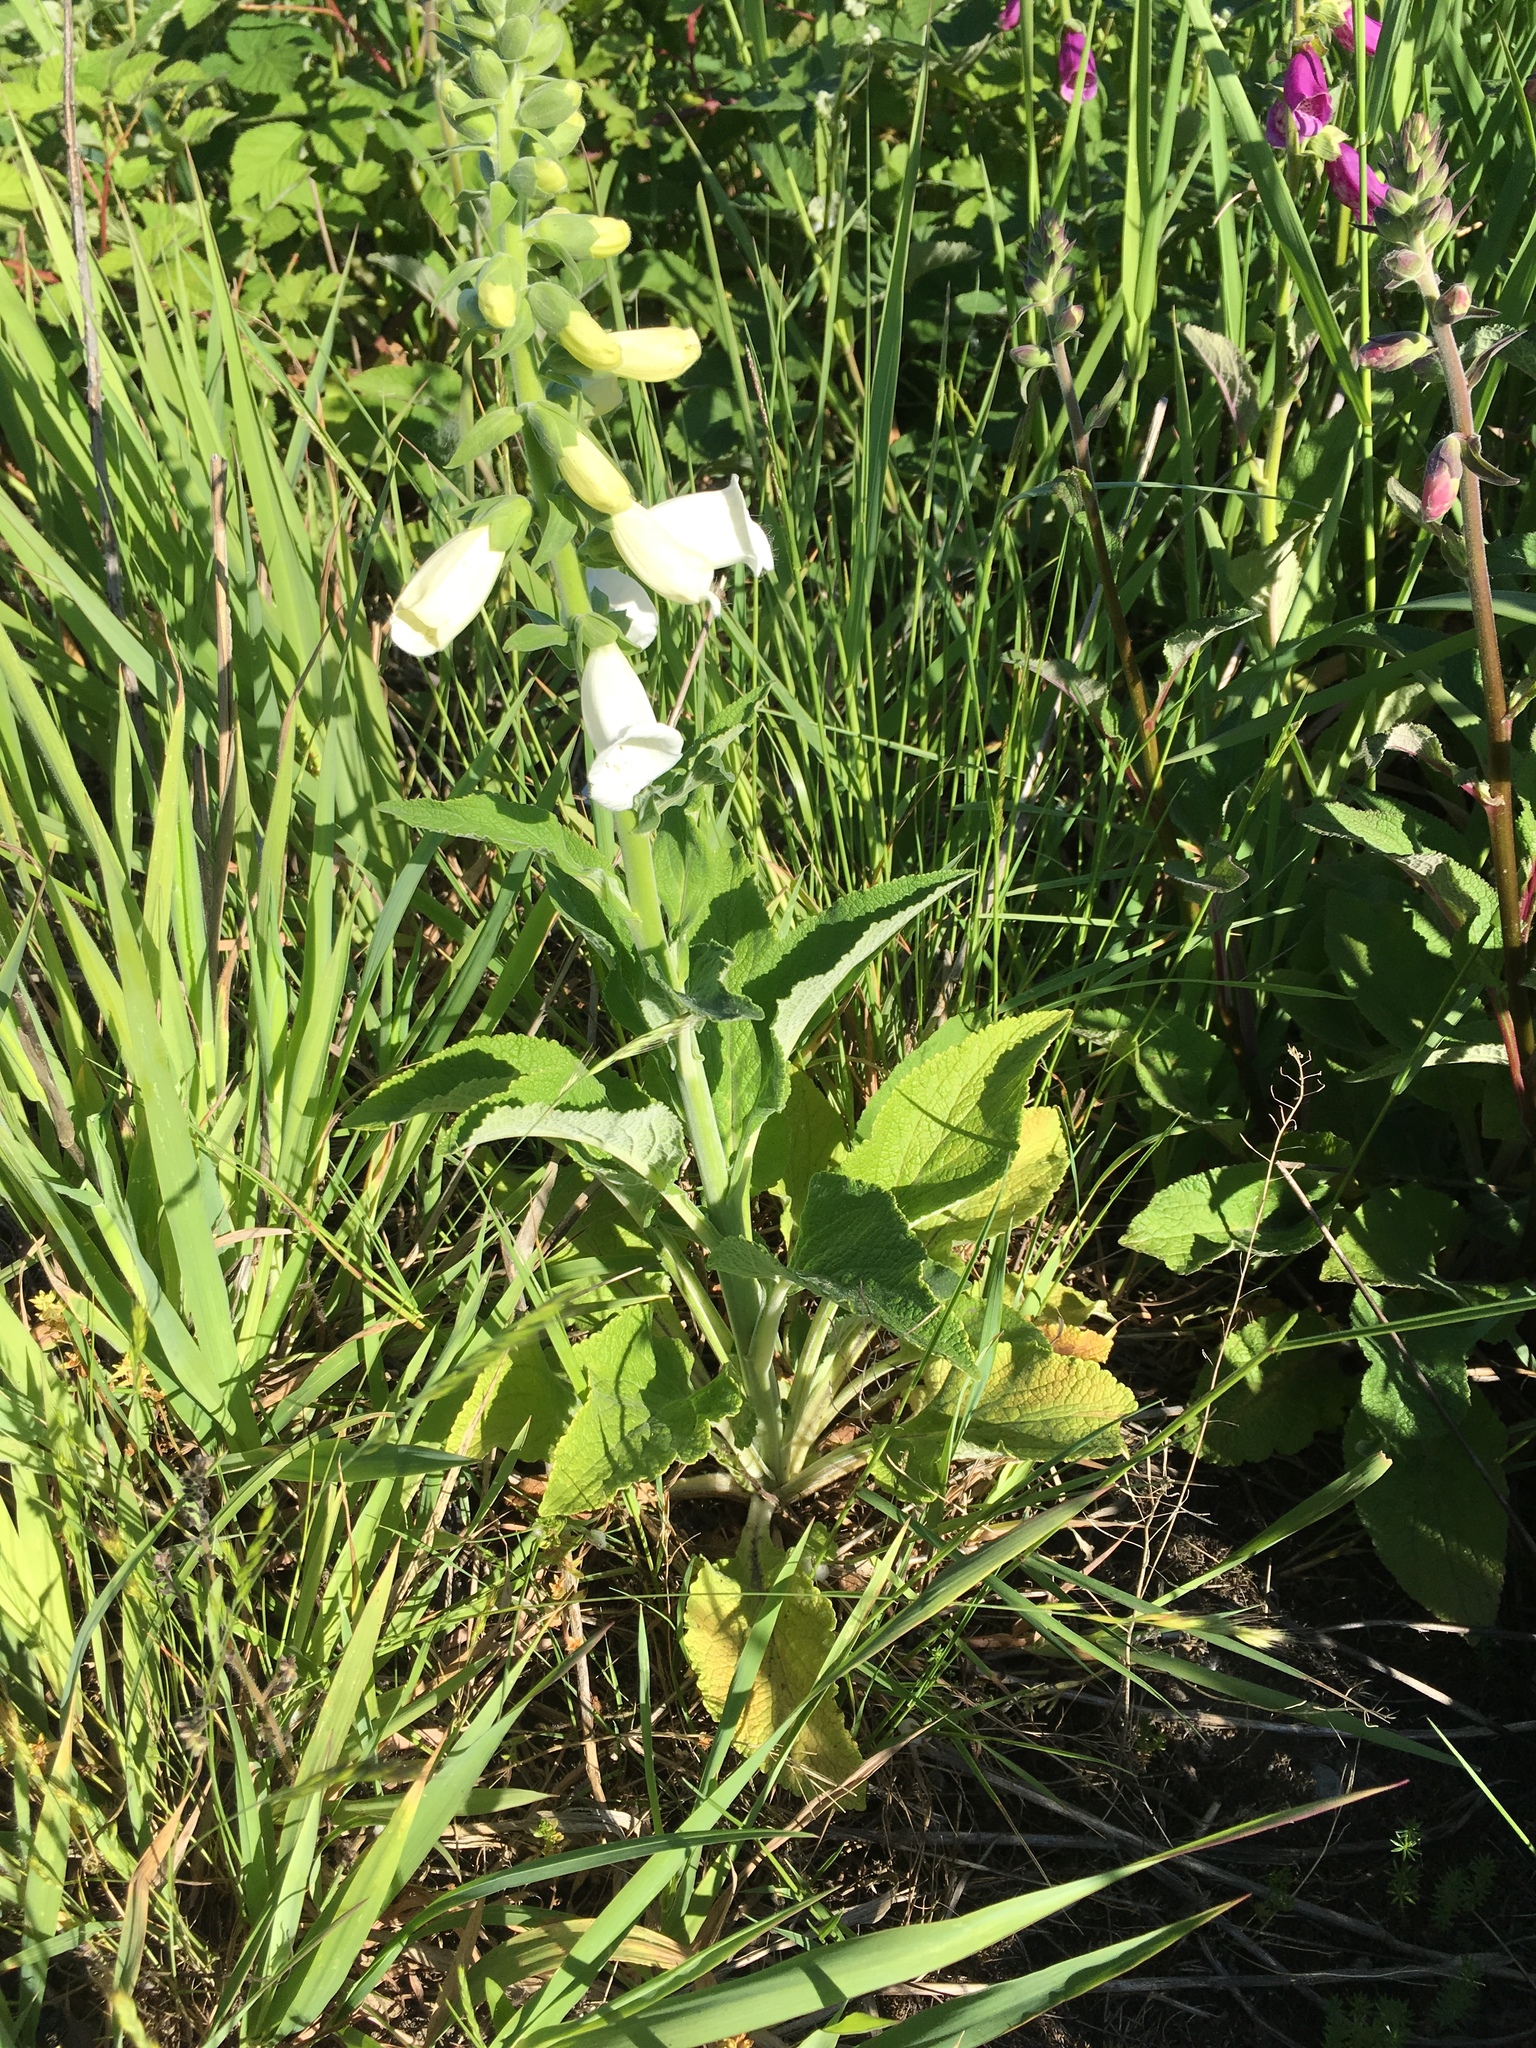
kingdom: Plantae
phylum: Tracheophyta
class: Magnoliopsida
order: Lamiales
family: Plantaginaceae
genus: Digitalis
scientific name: Digitalis purpurea
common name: Foxglove
